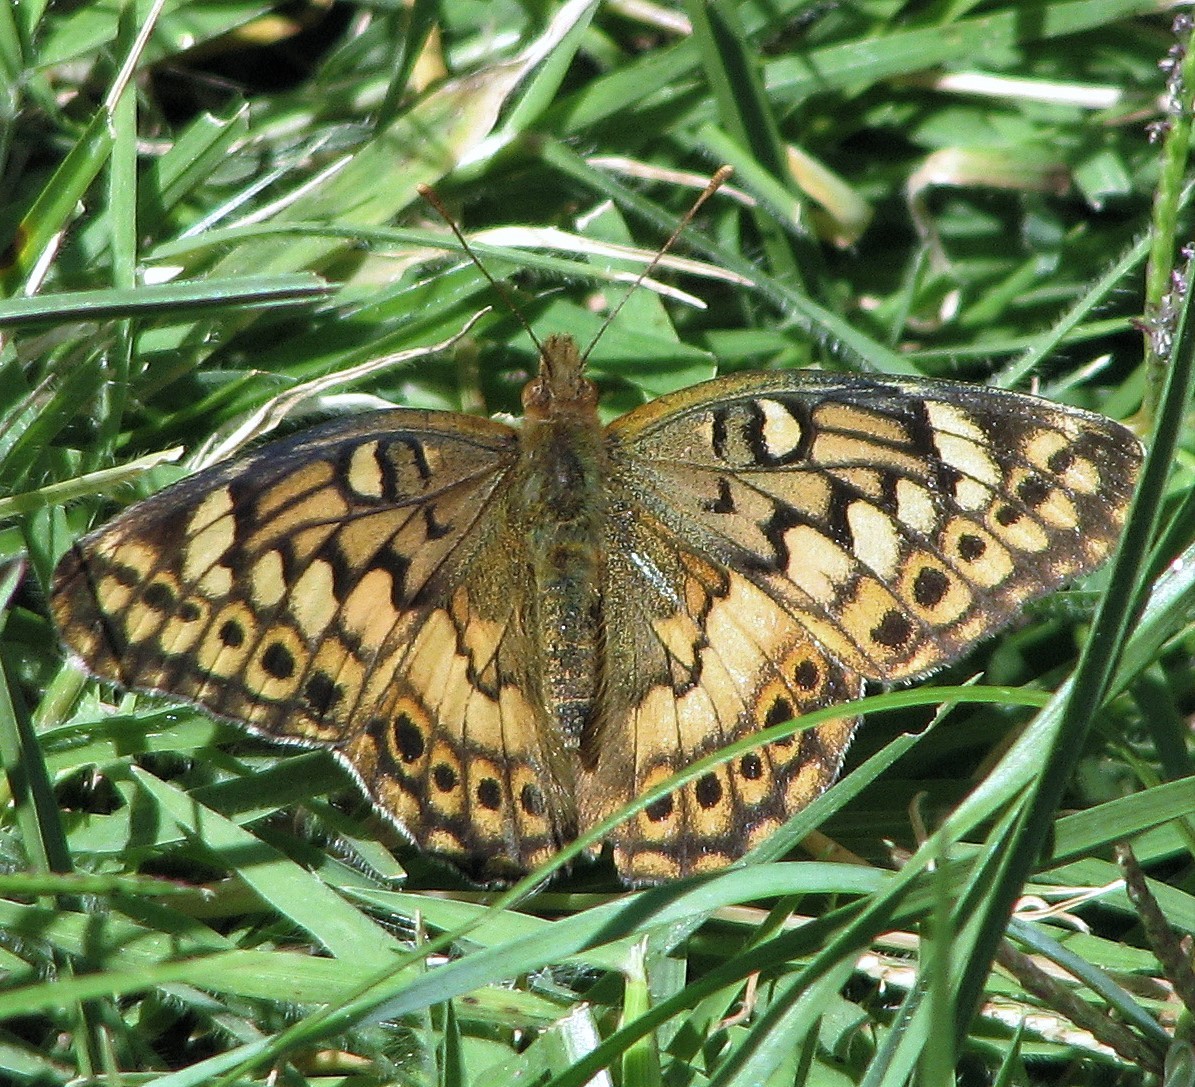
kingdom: Animalia
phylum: Arthropoda
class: Insecta
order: Lepidoptera
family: Nymphalidae
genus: Euptoieta
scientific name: Euptoieta hortensia
